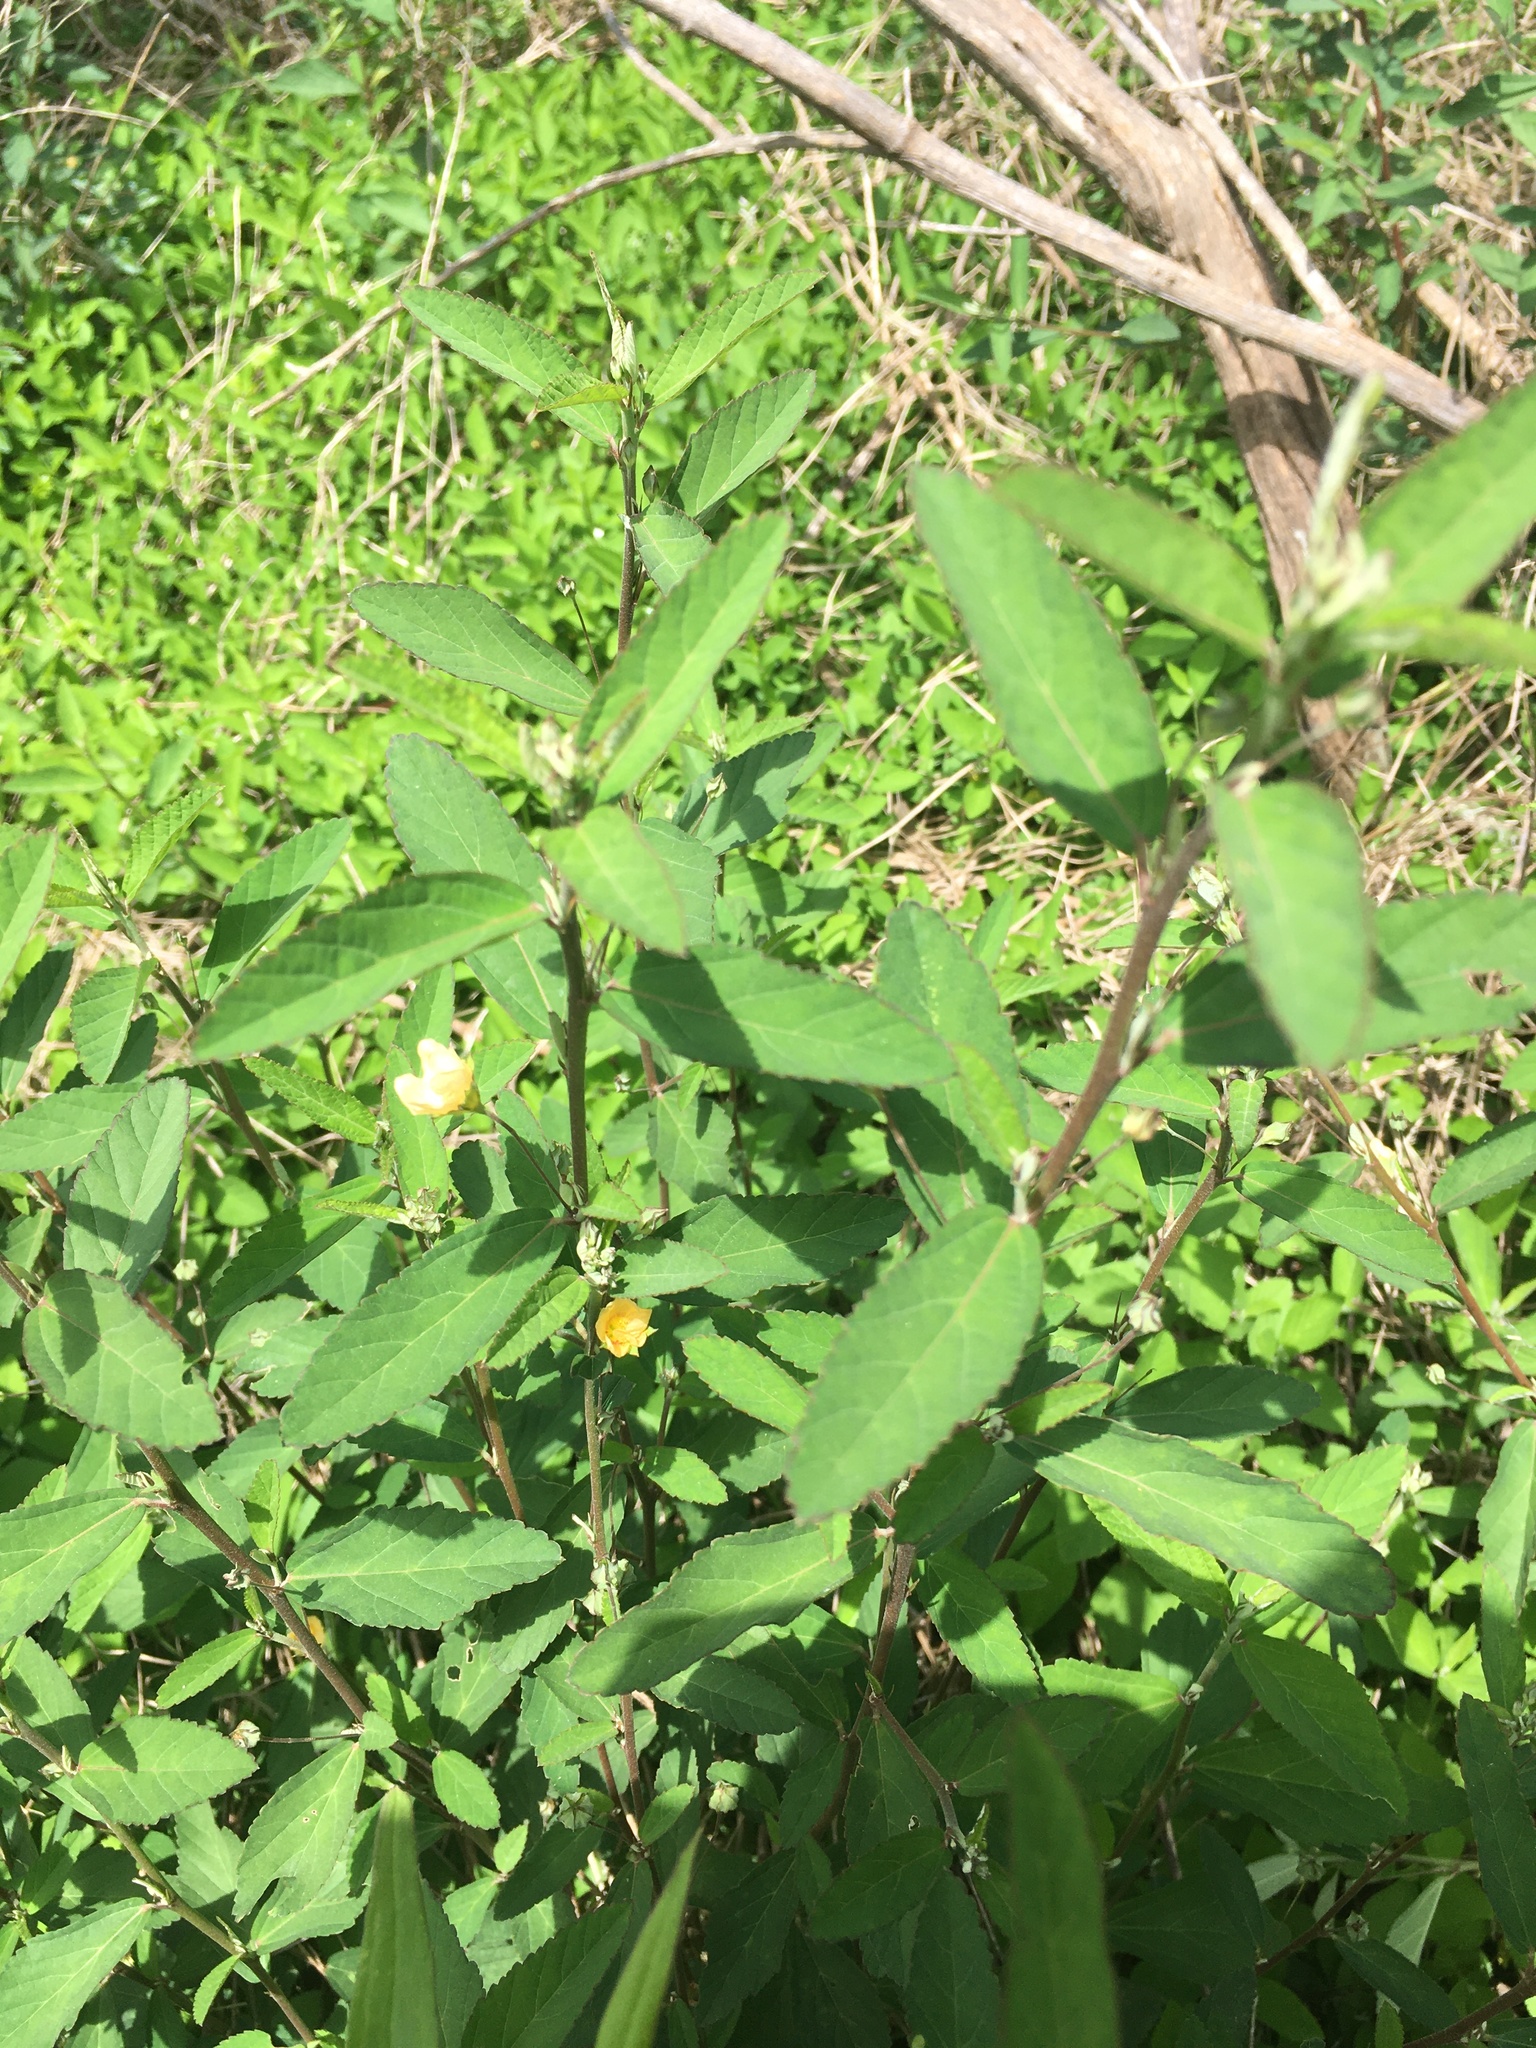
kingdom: Plantae
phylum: Tracheophyta
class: Magnoliopsida
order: Malvales
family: Malvaceae
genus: Sida
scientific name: Sida rhombifolia
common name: Queensland-hemp
